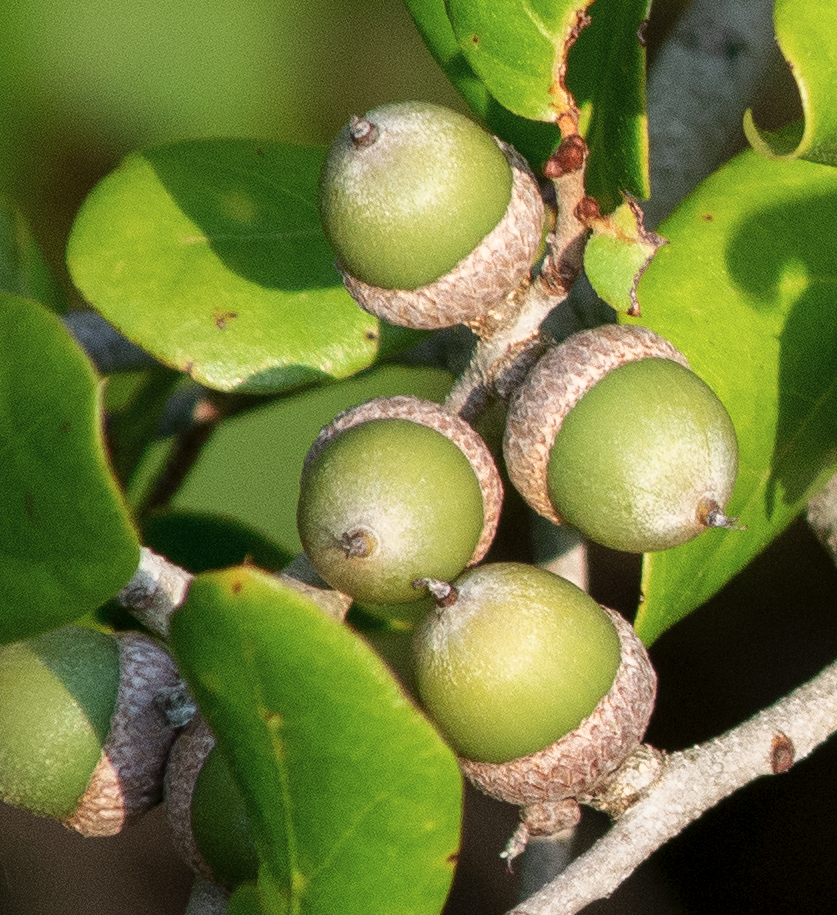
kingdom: Plantae
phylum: Tracheophyta
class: Magnoliopsida
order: Fagales
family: Fagaceae
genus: Quercus
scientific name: Quercus myrtifolia
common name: Myrtle oak
